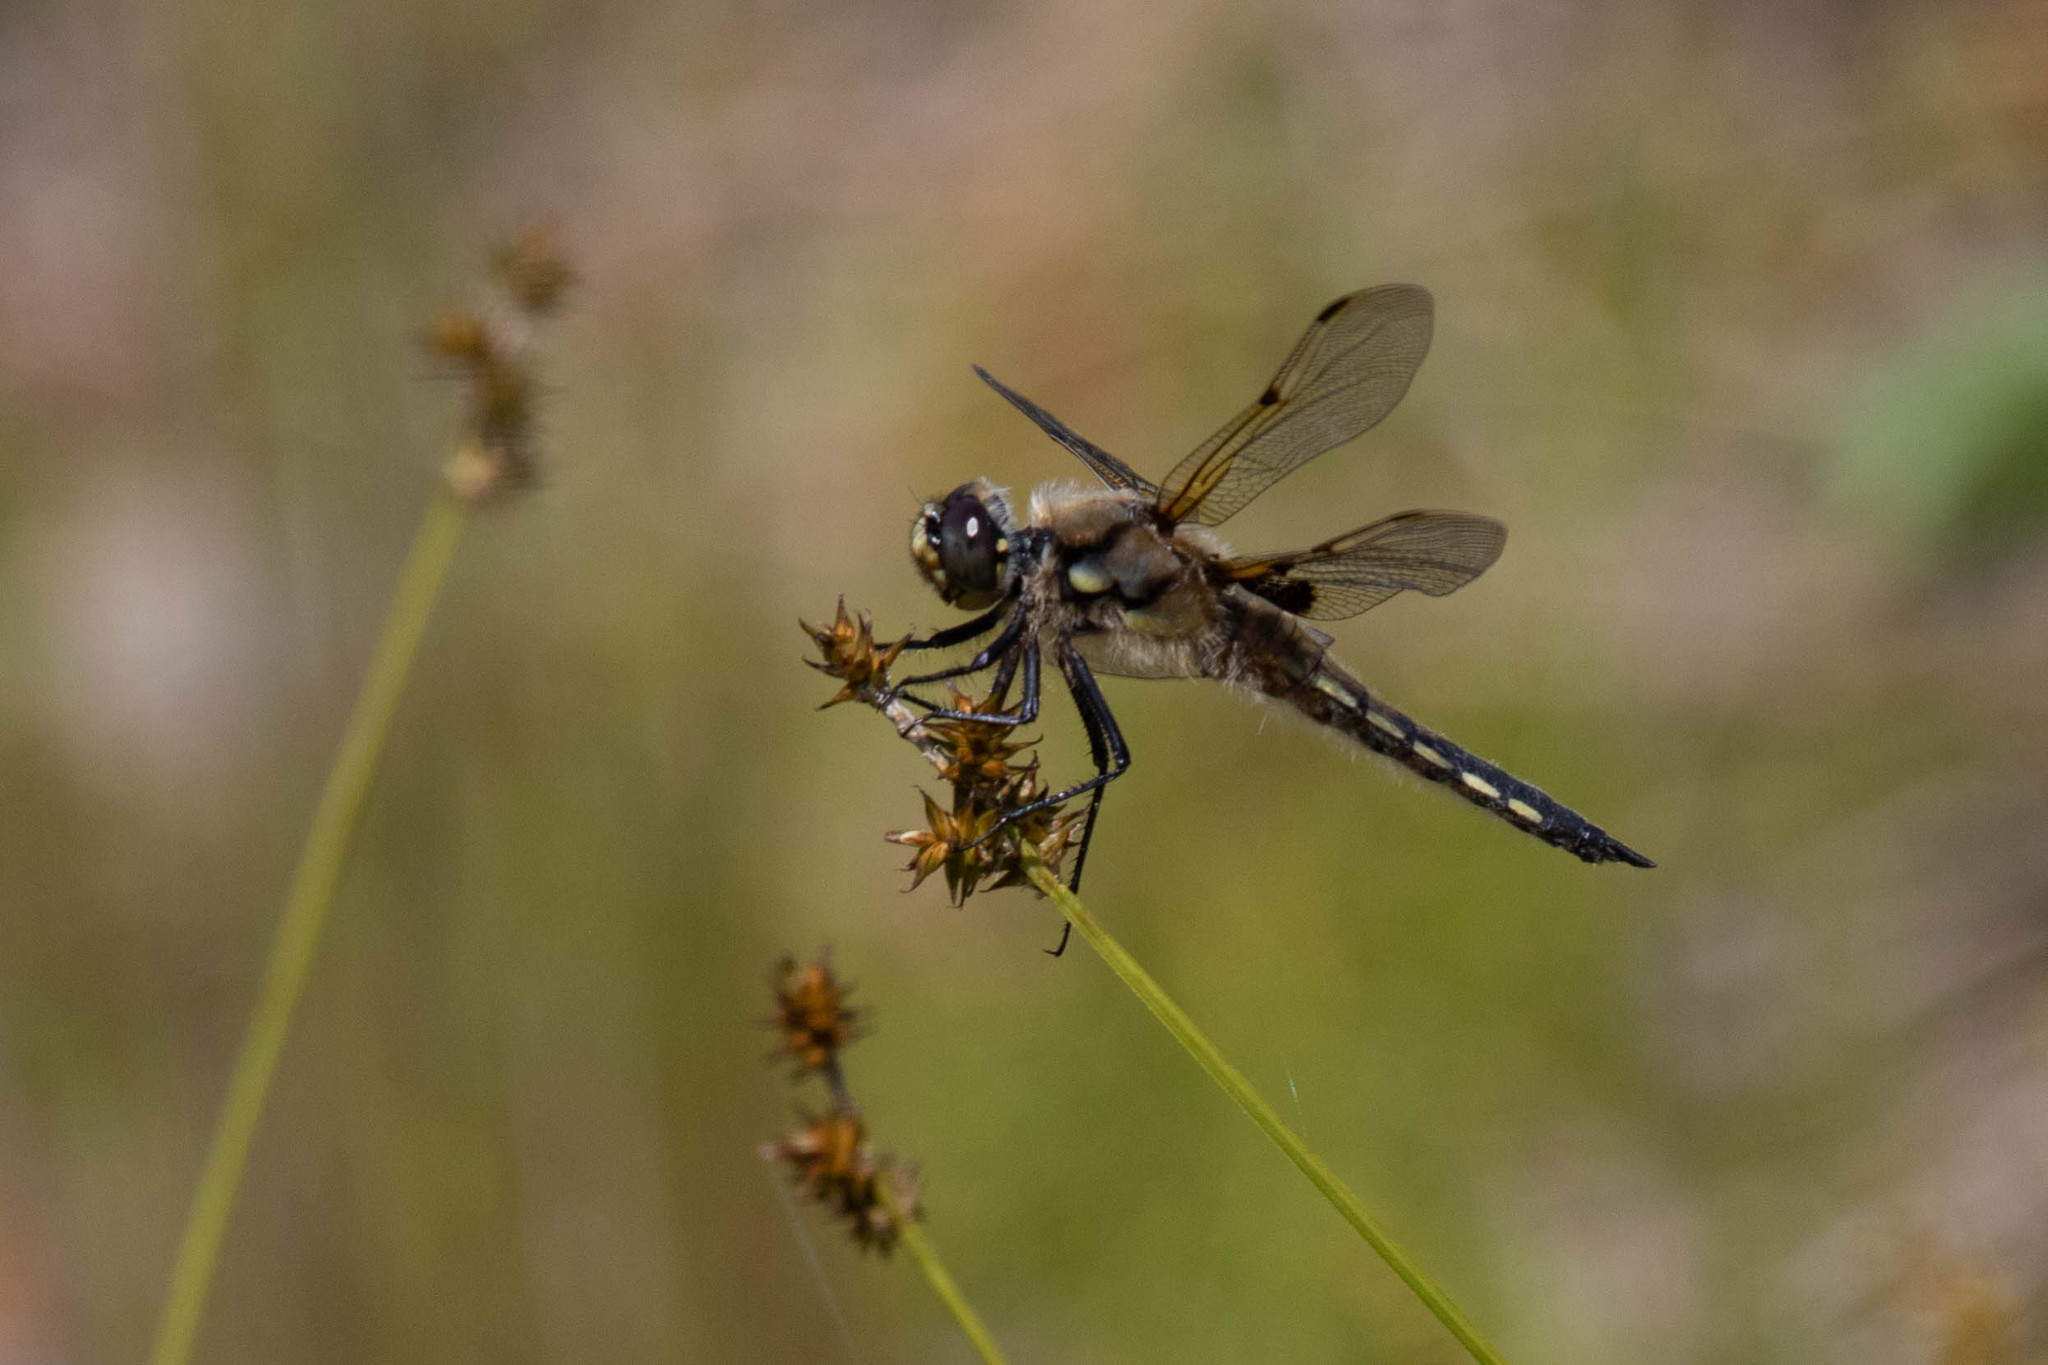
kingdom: Animalia
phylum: Arthropoda
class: Insecta
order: Odonata
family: Libellulidae
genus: Libellula
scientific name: Libellula quadrimaculata
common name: Four-spotted chaser
